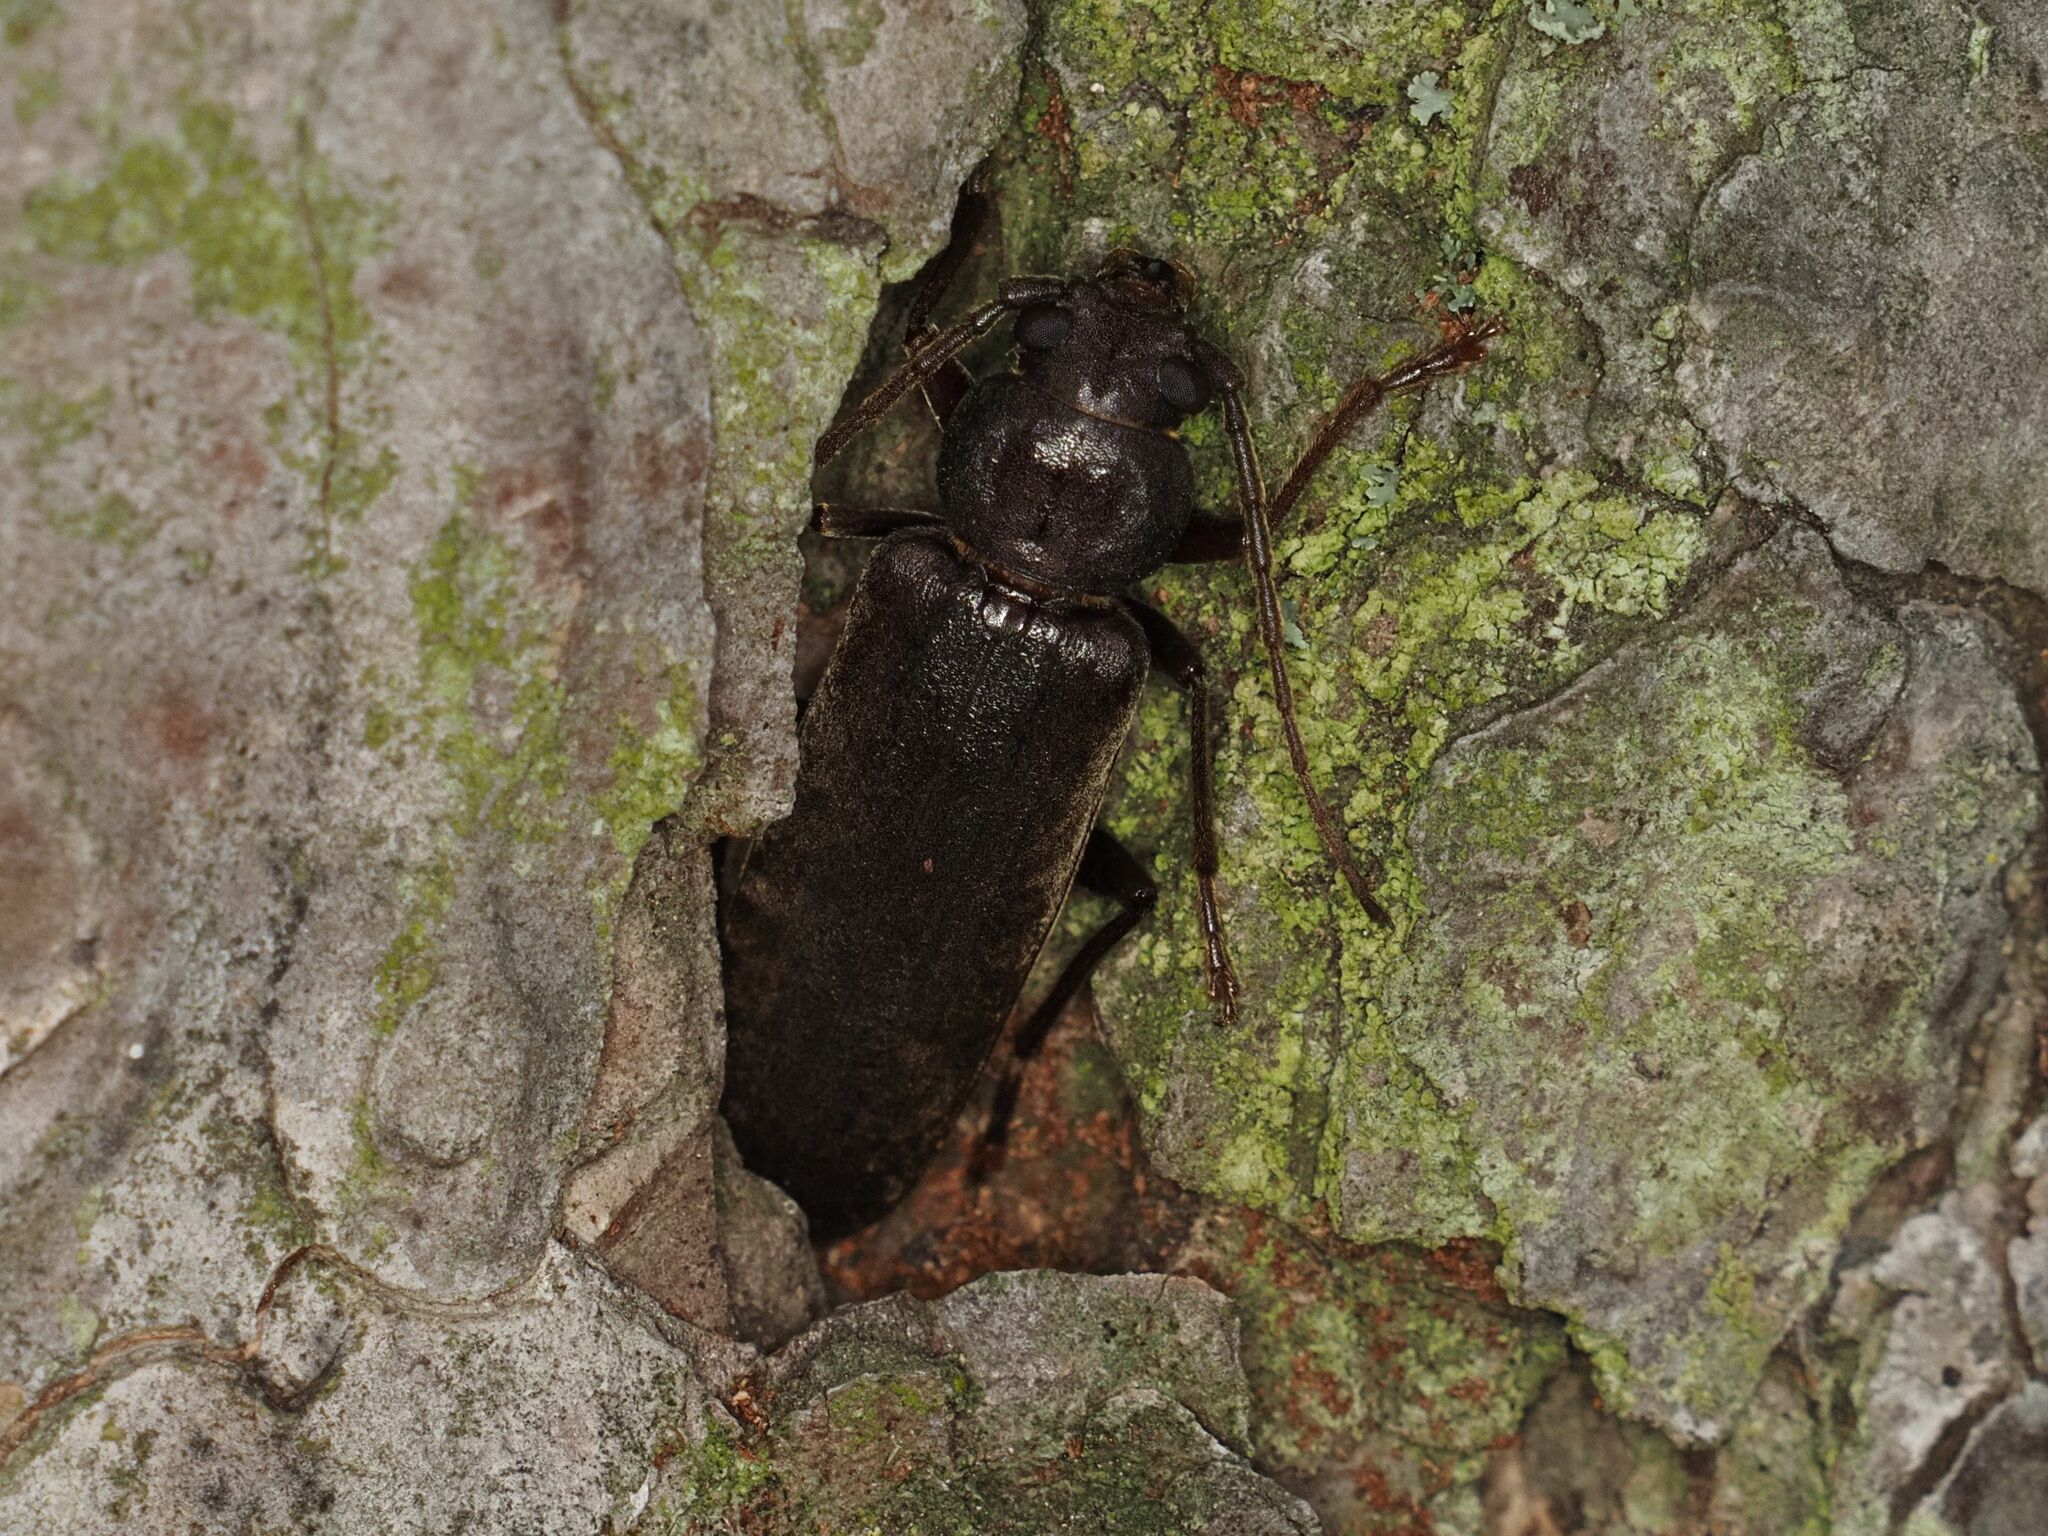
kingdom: Animalia
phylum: Arthropoda
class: Insecta
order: Coleoptera
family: Cerambycidae
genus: Arhopalus
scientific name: Arhopalus rusticus
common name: Rust pine borer
